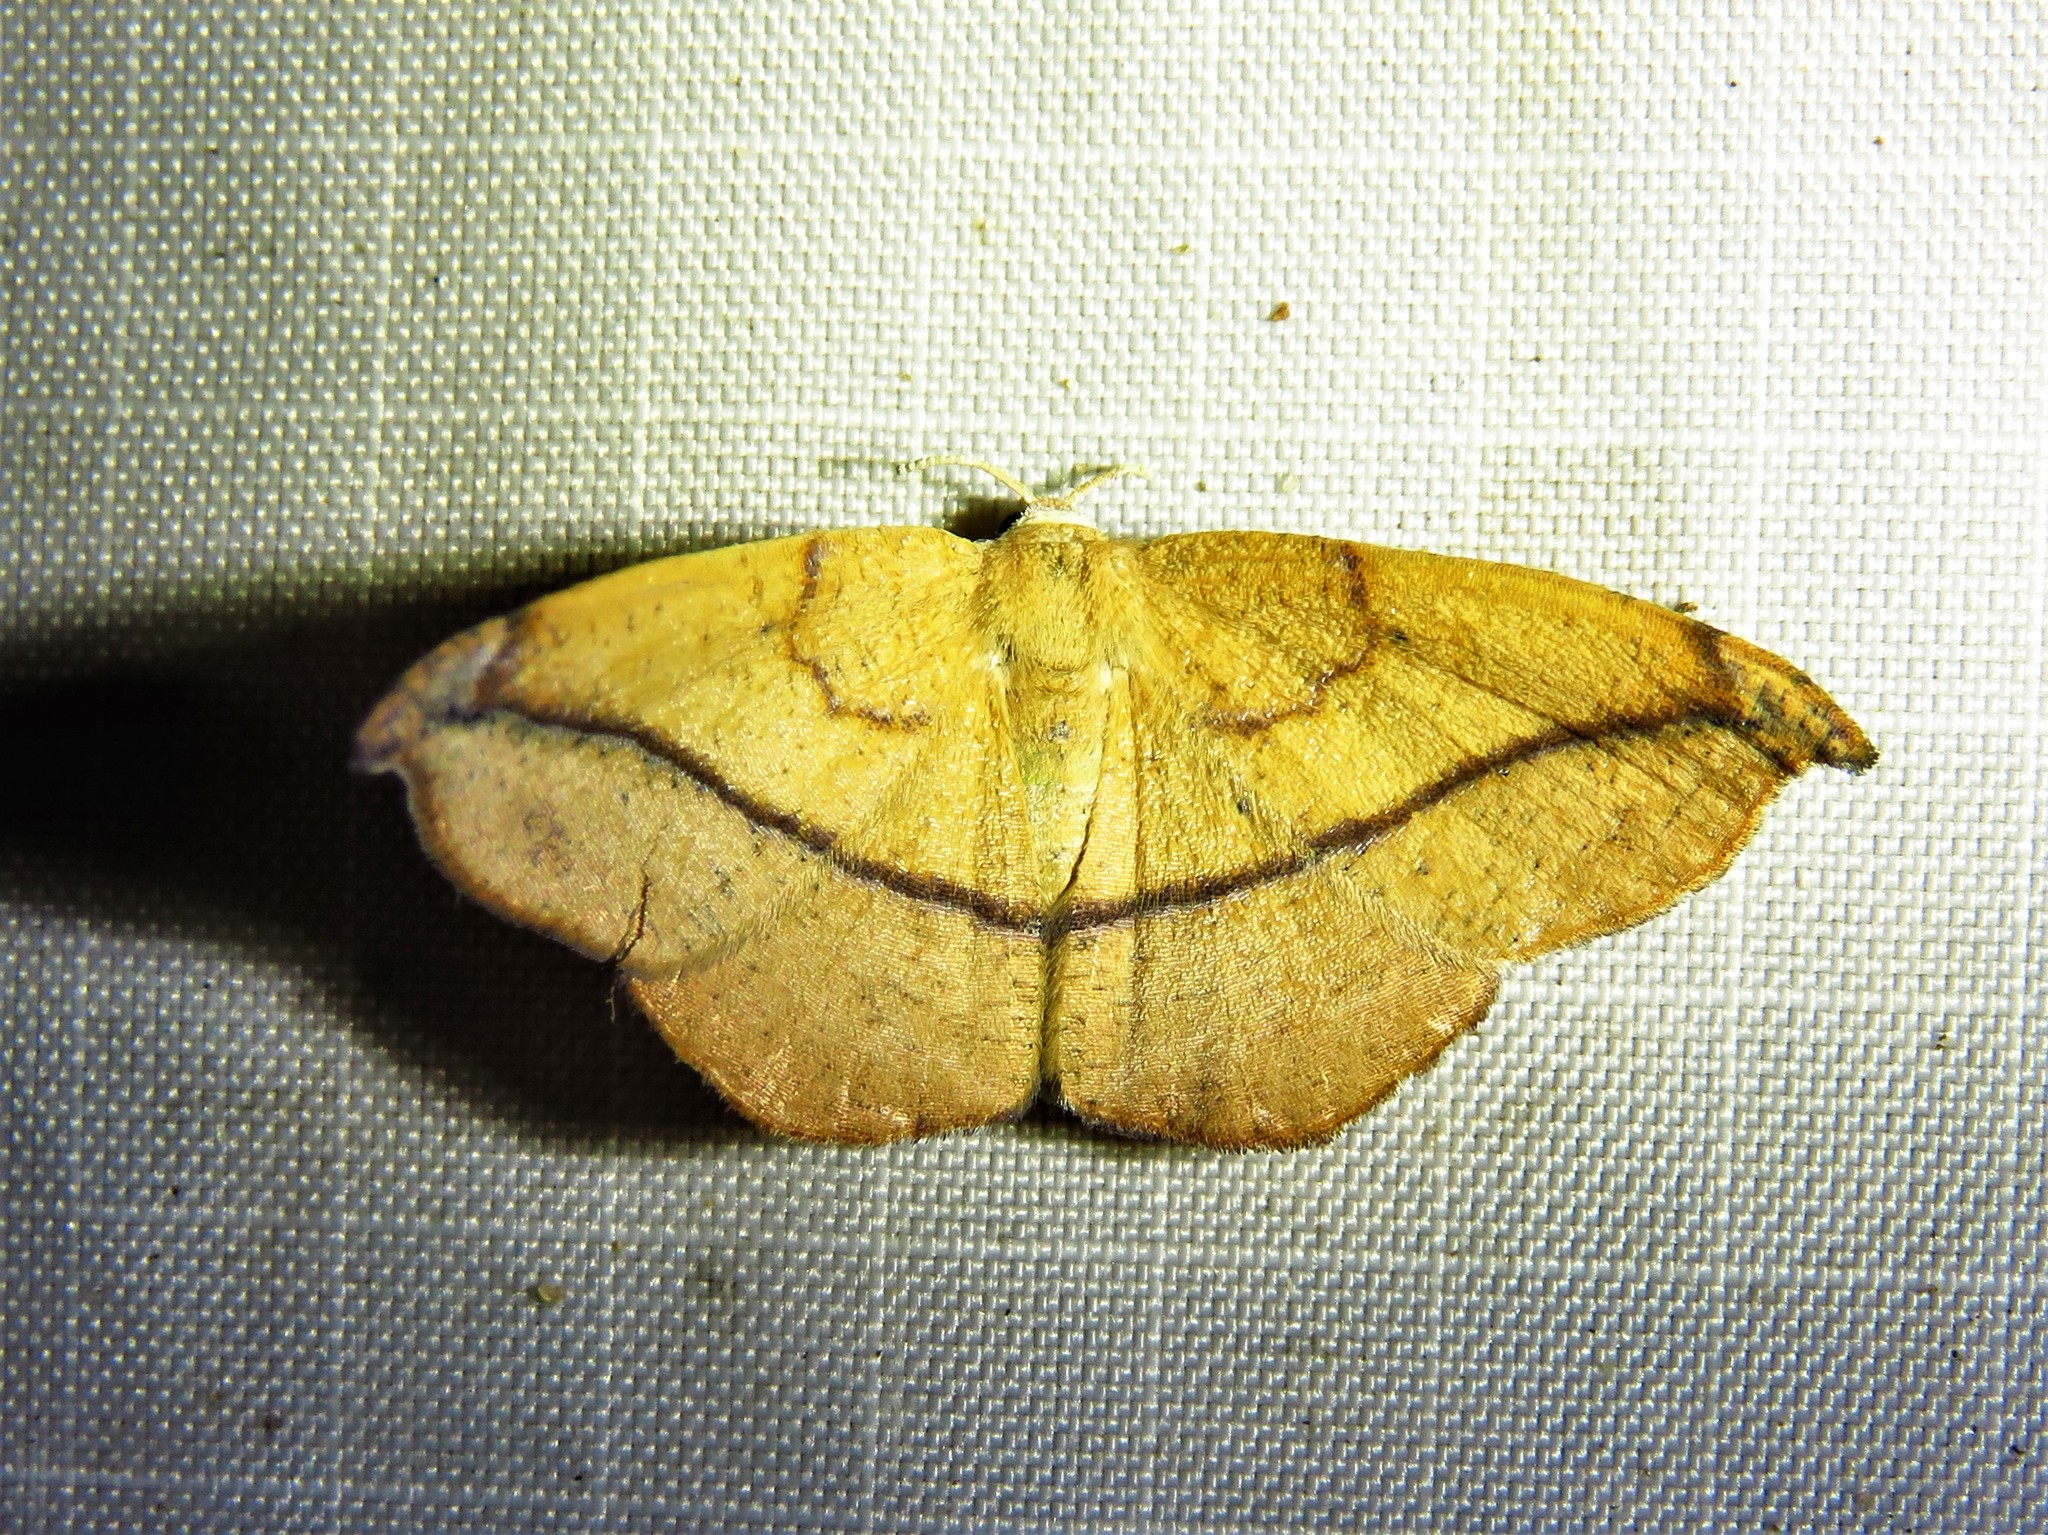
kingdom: Animalia
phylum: Arthropoda
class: Insecta
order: Lepidoptera
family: Geometridae
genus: Patalene
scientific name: Patalene olyzonaria
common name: Juniper geometer moth
